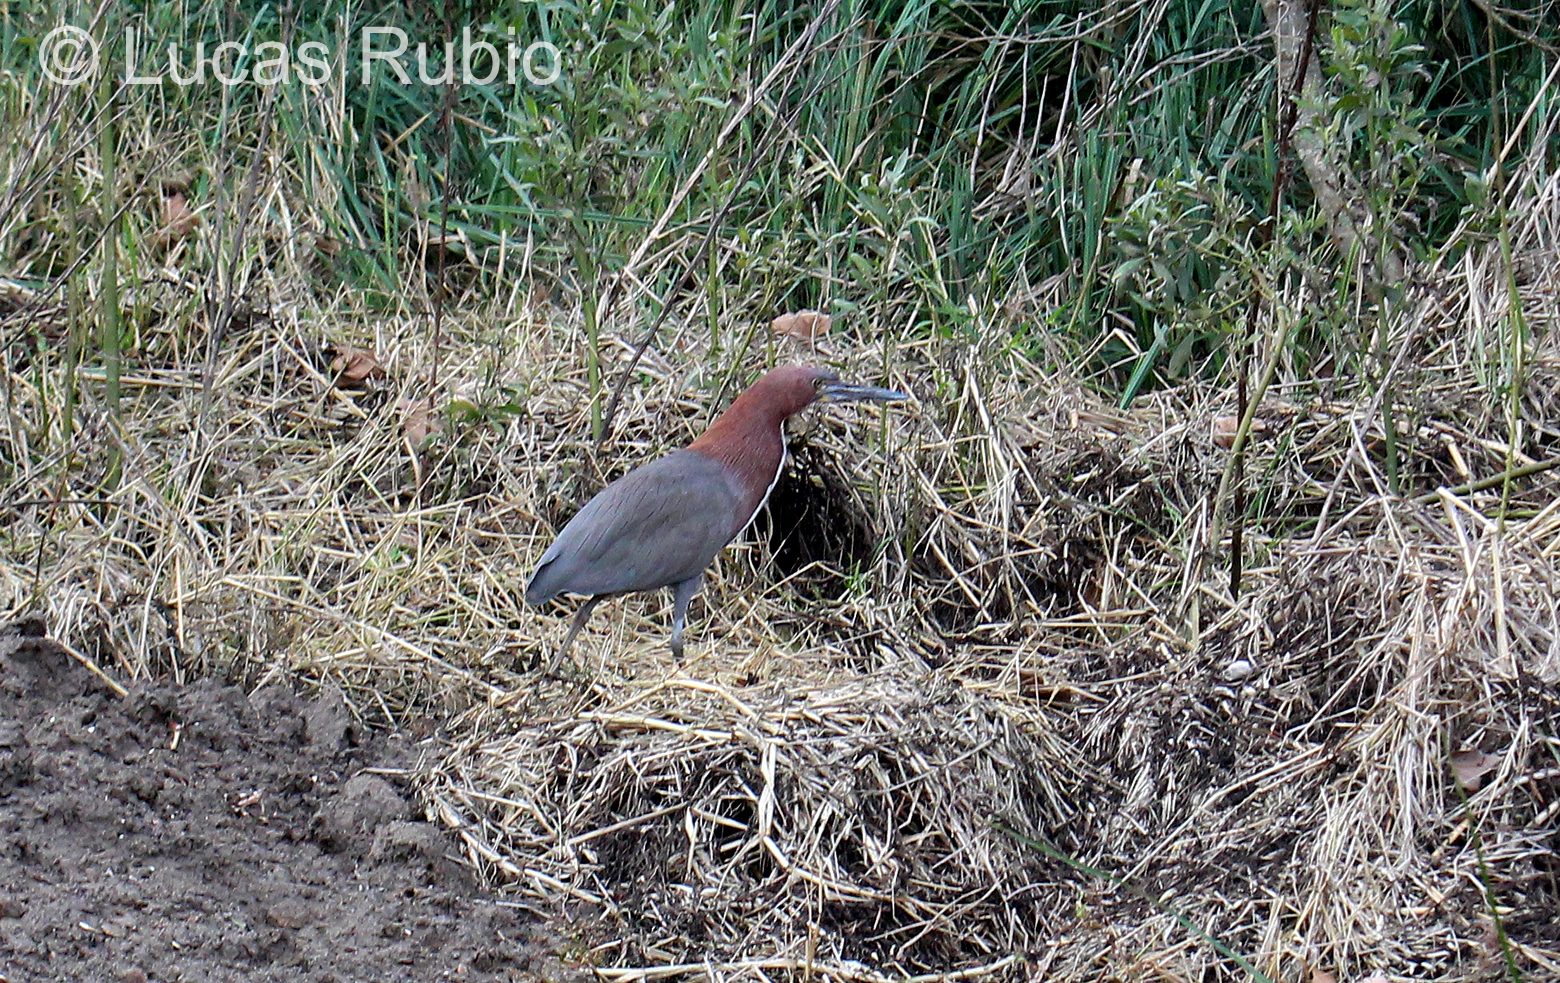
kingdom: Animalia
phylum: Chordata
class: Aves
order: Pelecaniformes
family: Ardeidae
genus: Tigrisoma
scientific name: Tigrisoma lineatum
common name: Rufescent tiger-heron
